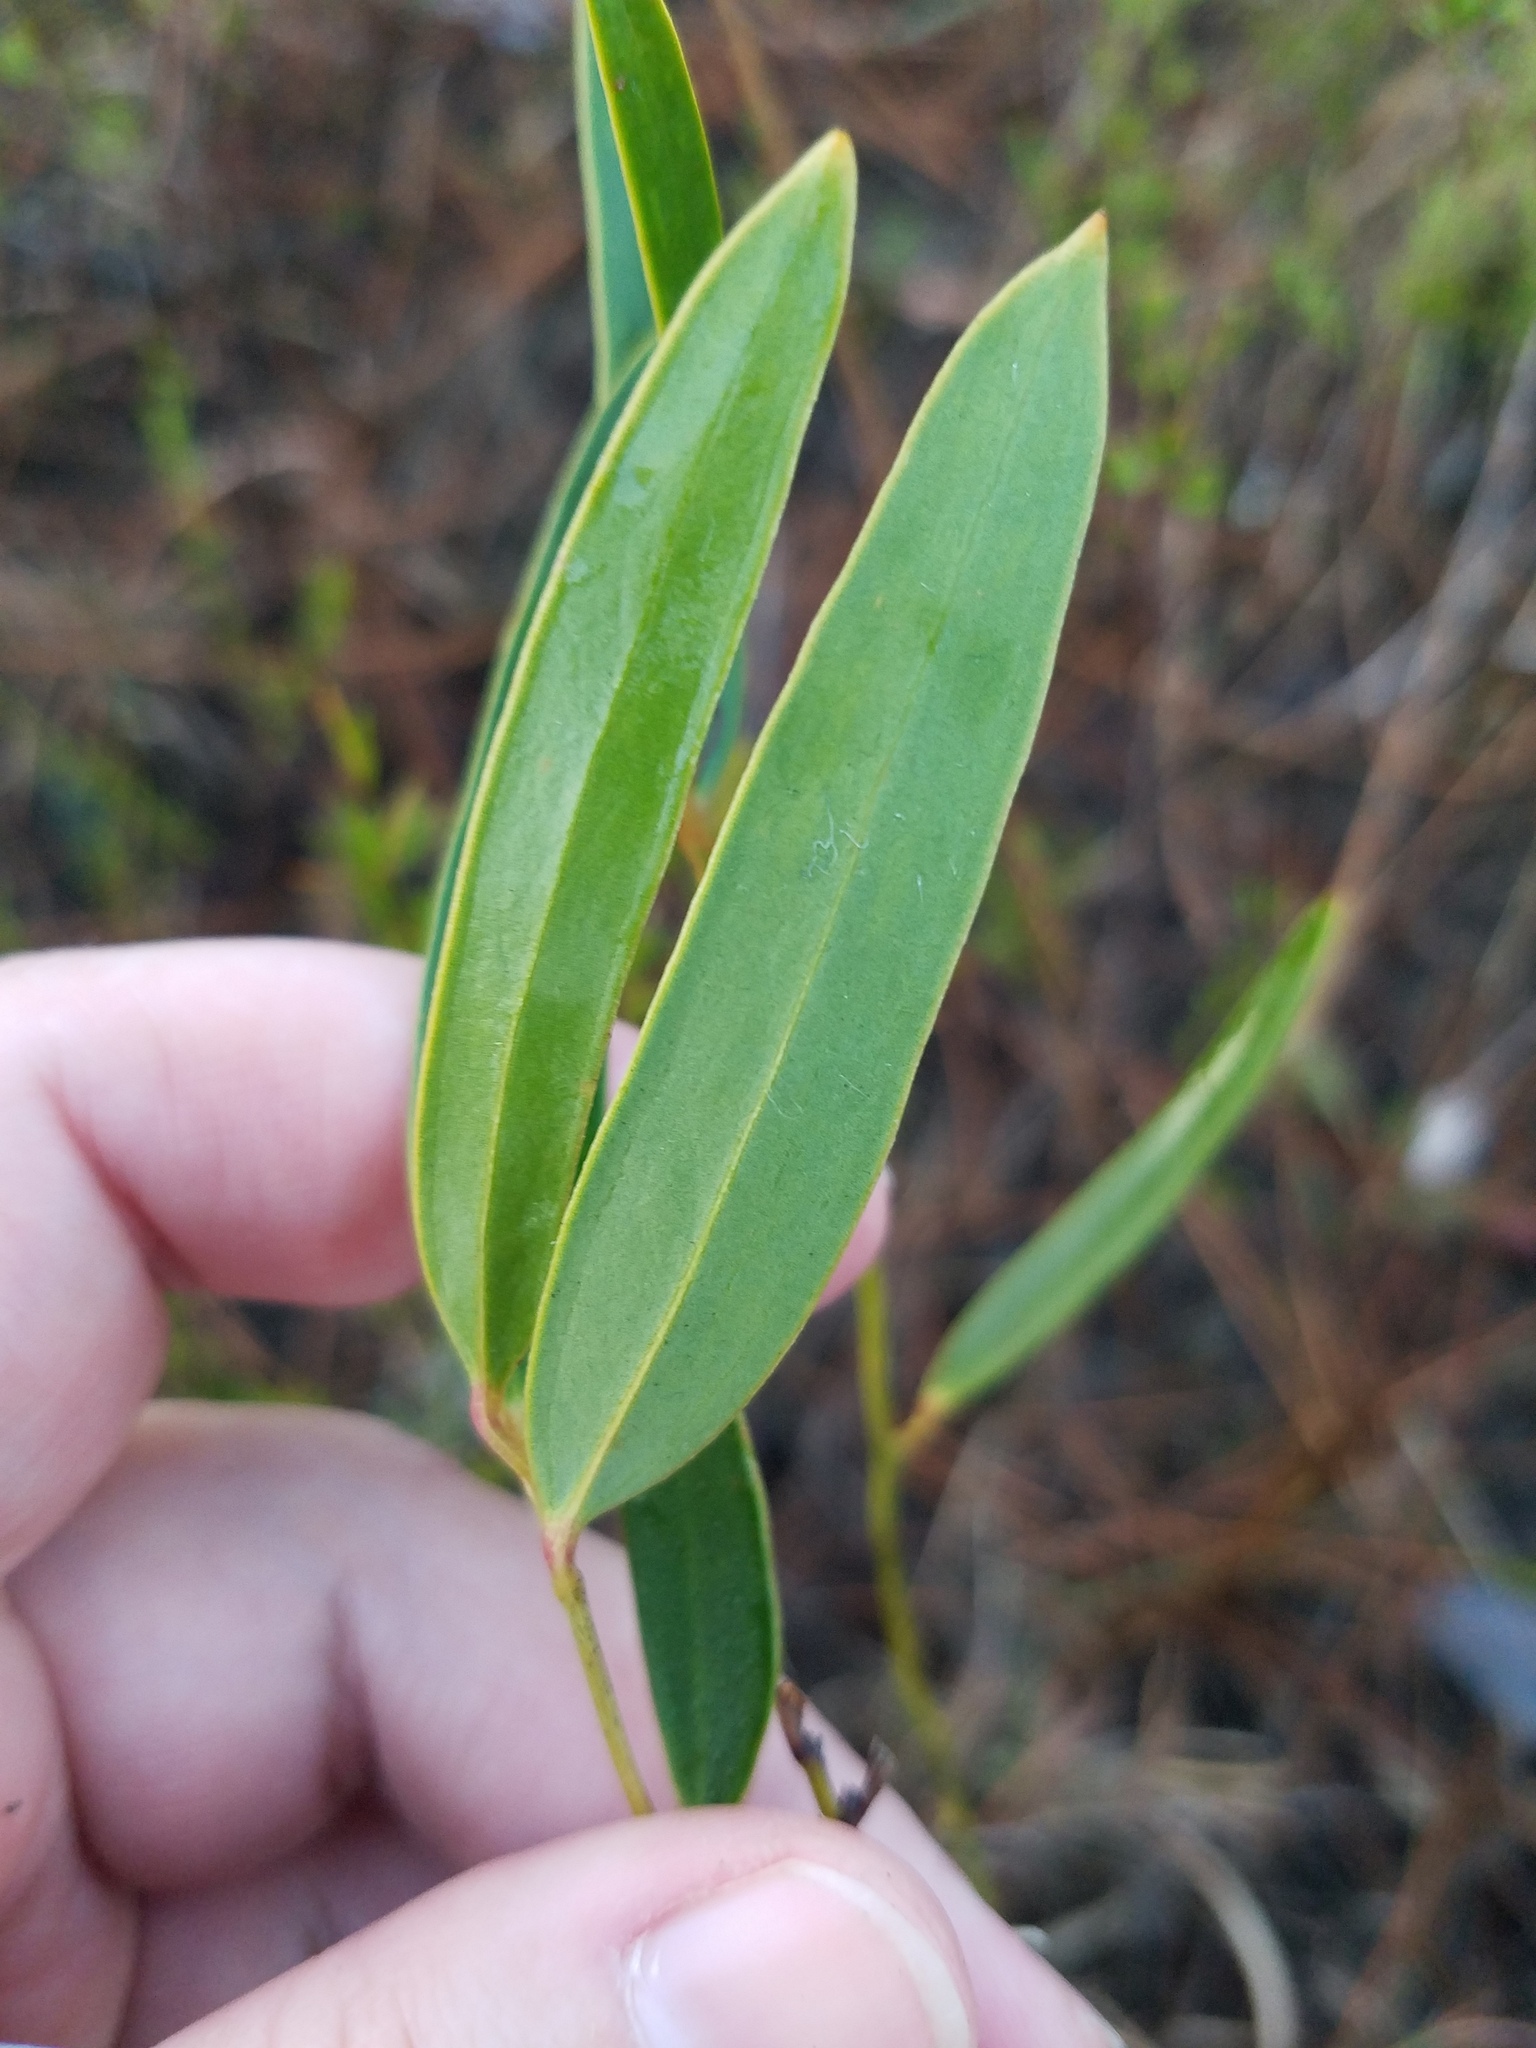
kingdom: Plantae
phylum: Tracheophyta
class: Liliopsida
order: Liliales
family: Smilacaceae
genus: Smilax
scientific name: Smilax laurifolia
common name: Bamboovine
